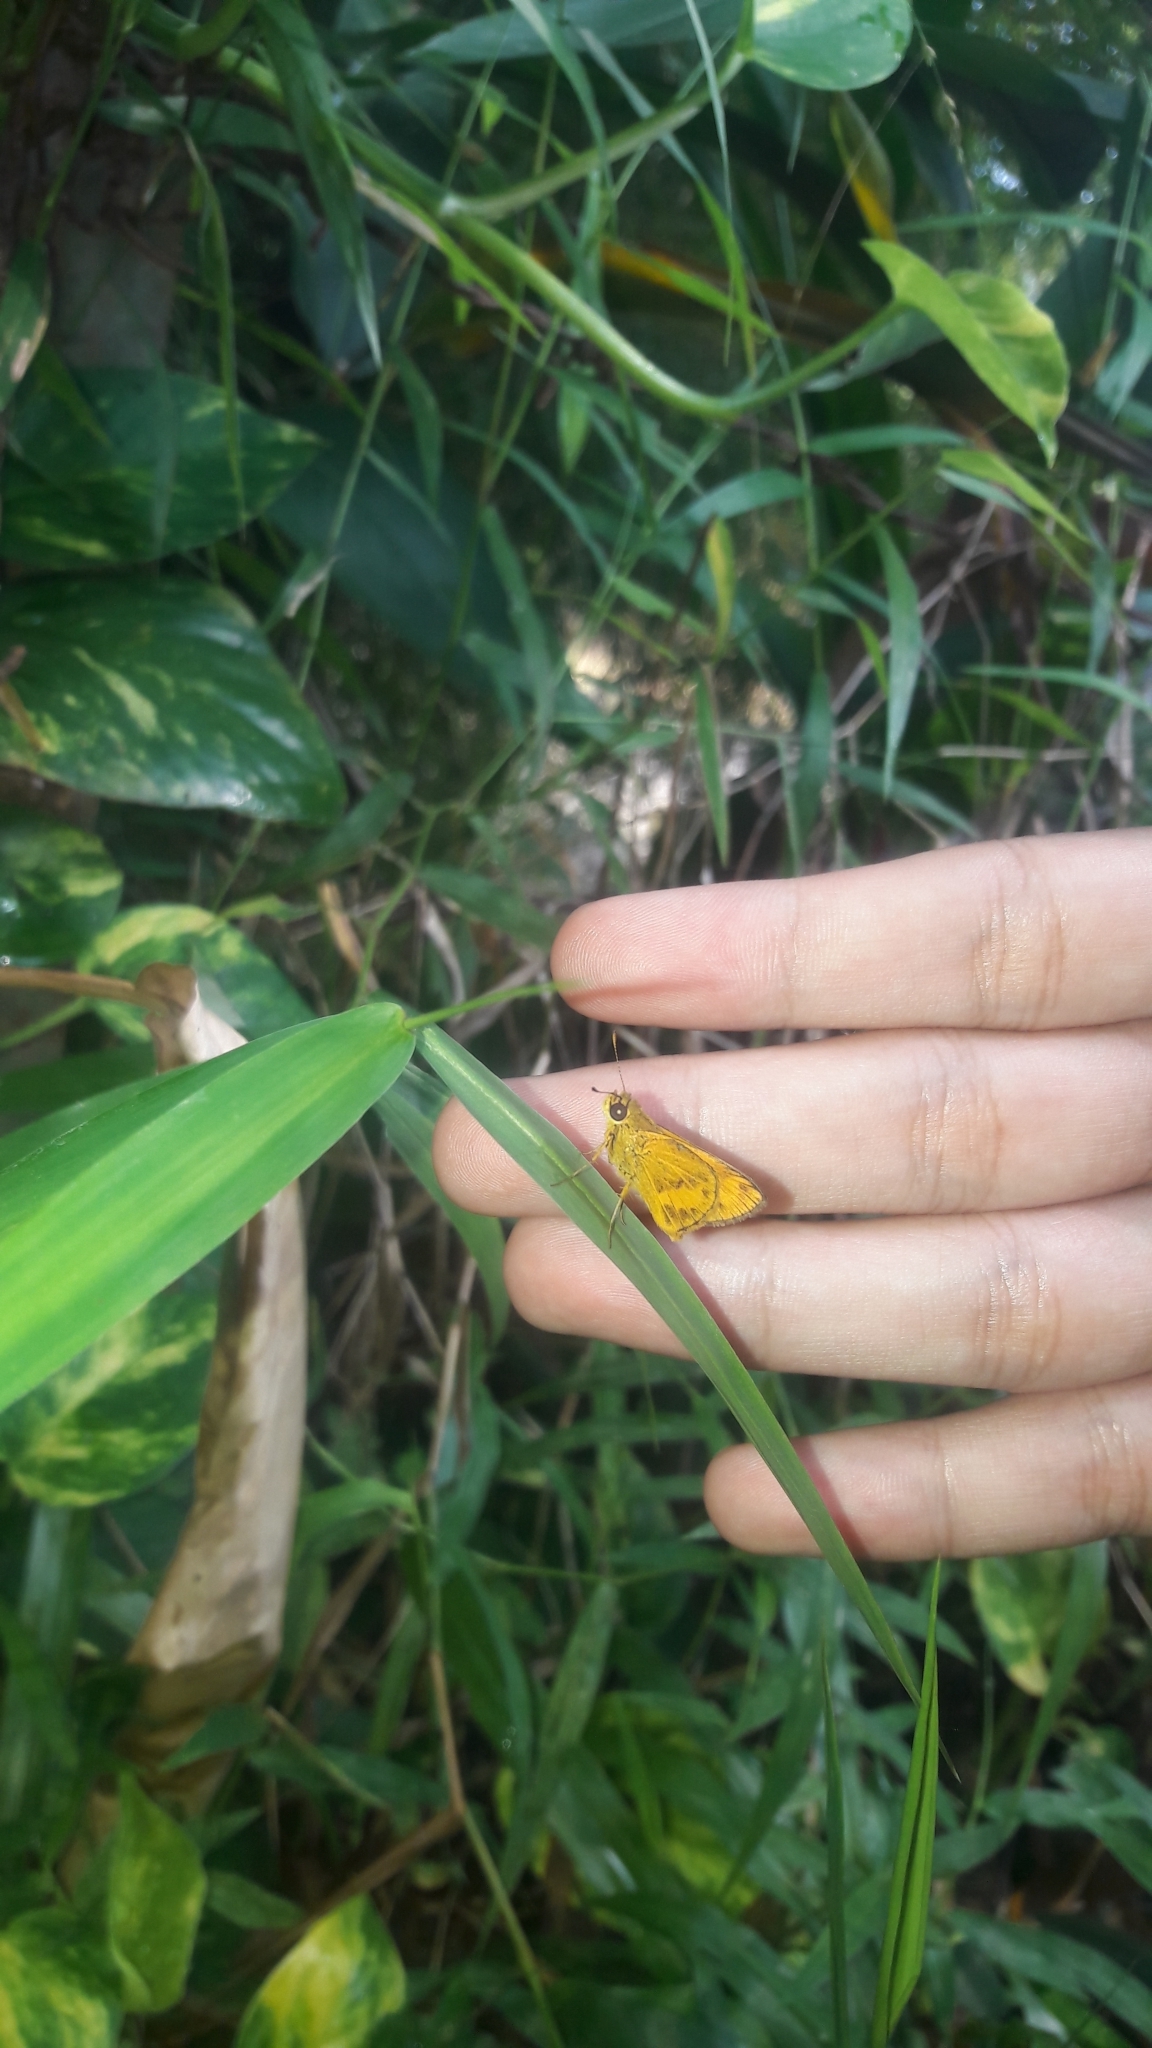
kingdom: Animalia
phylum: Arthropoda
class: Insecta
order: Lepidoptera
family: Hesperiidae
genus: Oriens
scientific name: Oriens gola
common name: Common dartlet
